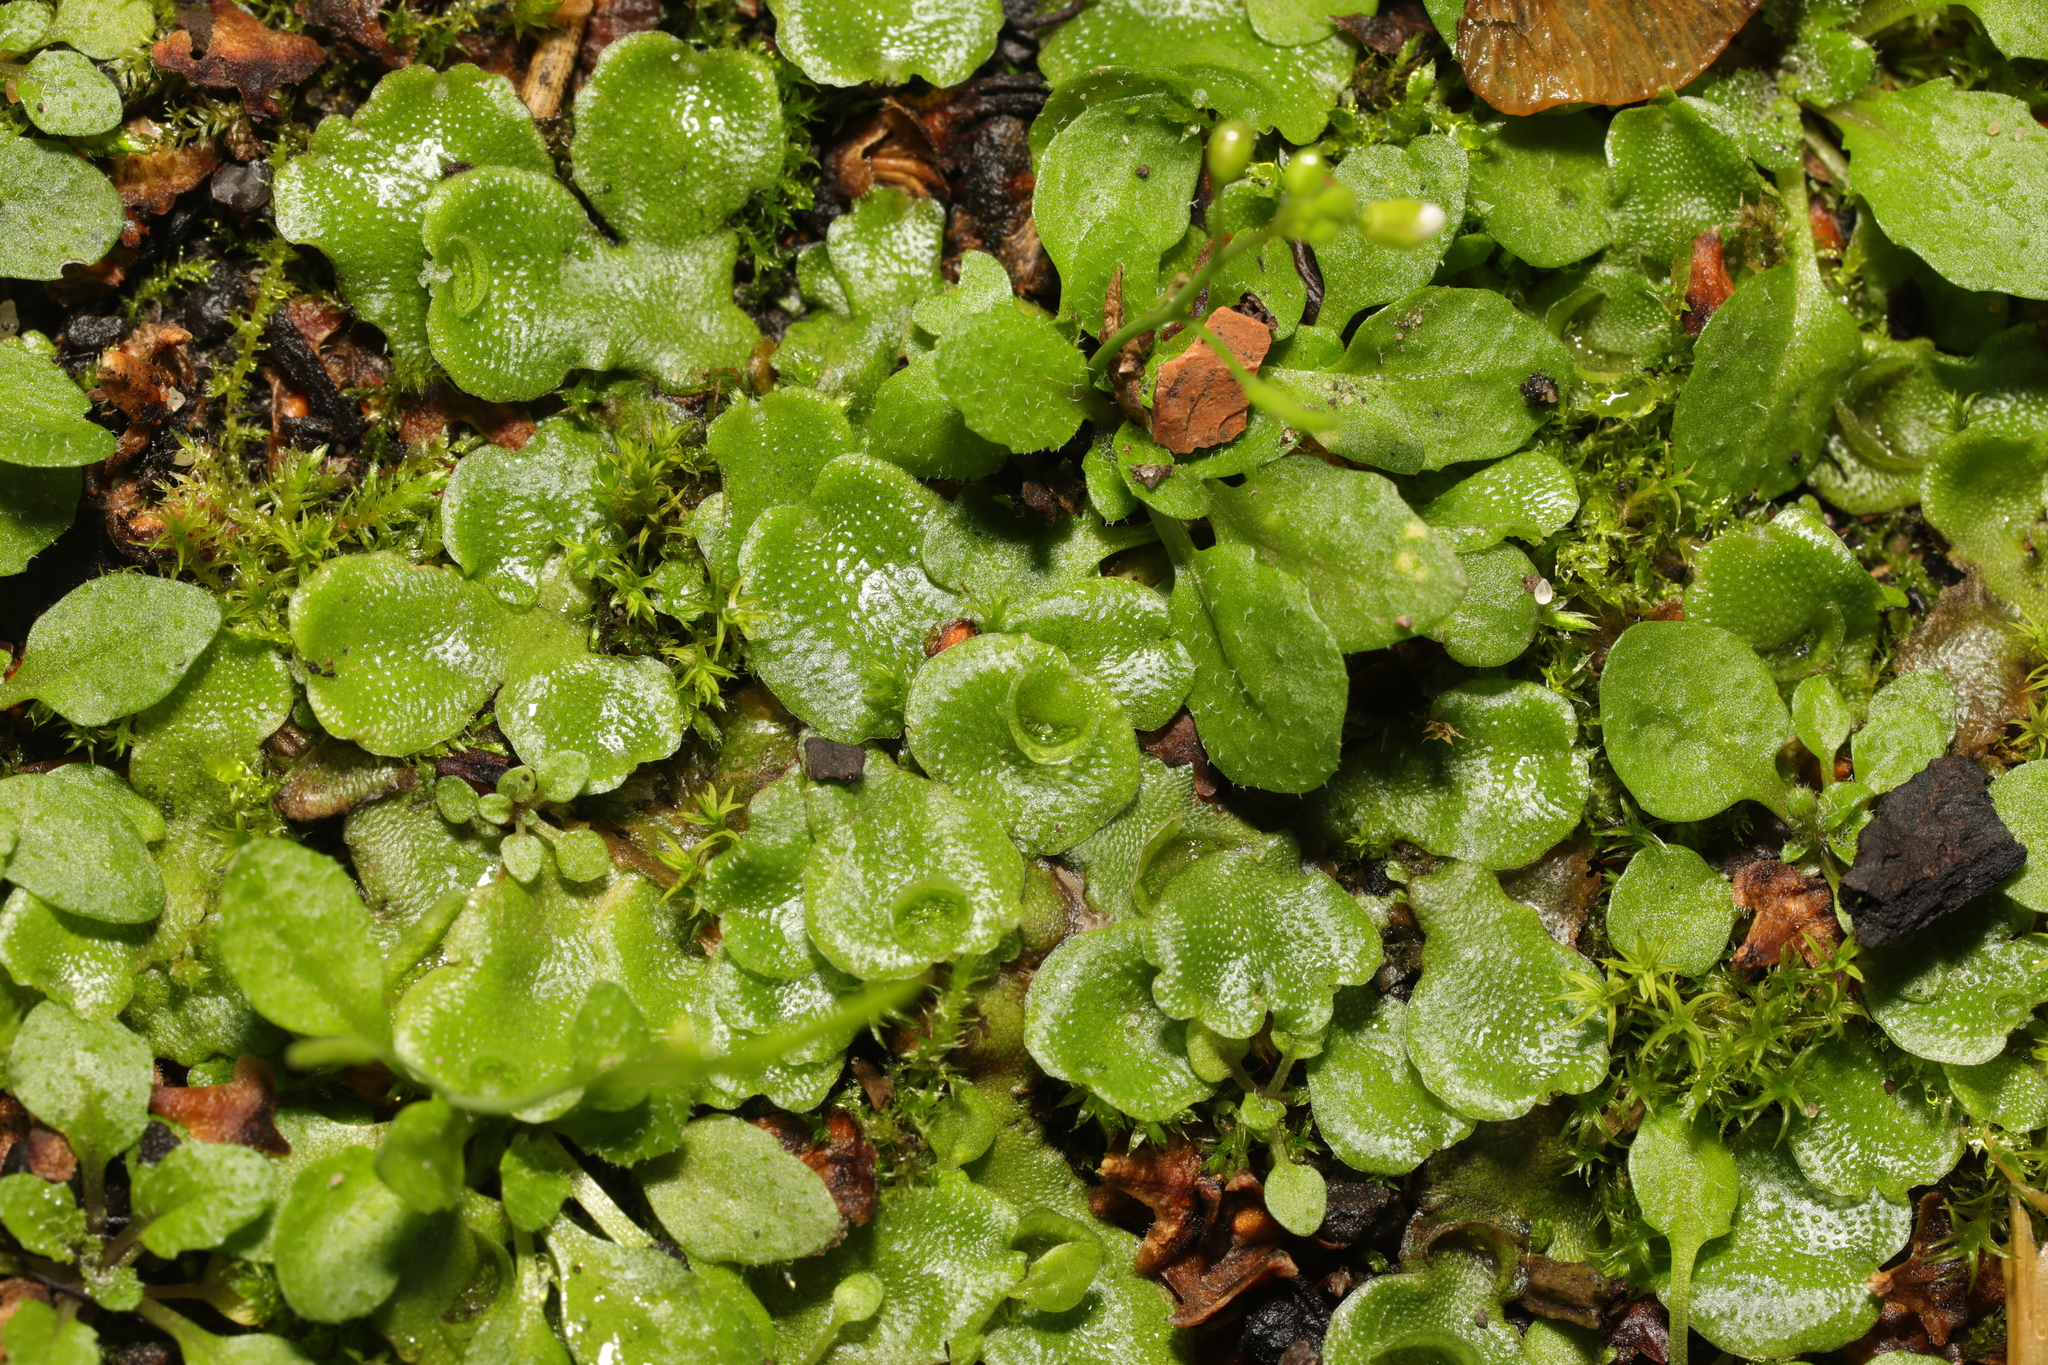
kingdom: Plantae
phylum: Marchantiophyta
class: Marchantiopsida
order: Lunulariales
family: Lunulariaceae
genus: Lunularia
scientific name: Lunularia cruciata
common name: Crescent-cup liverwort
